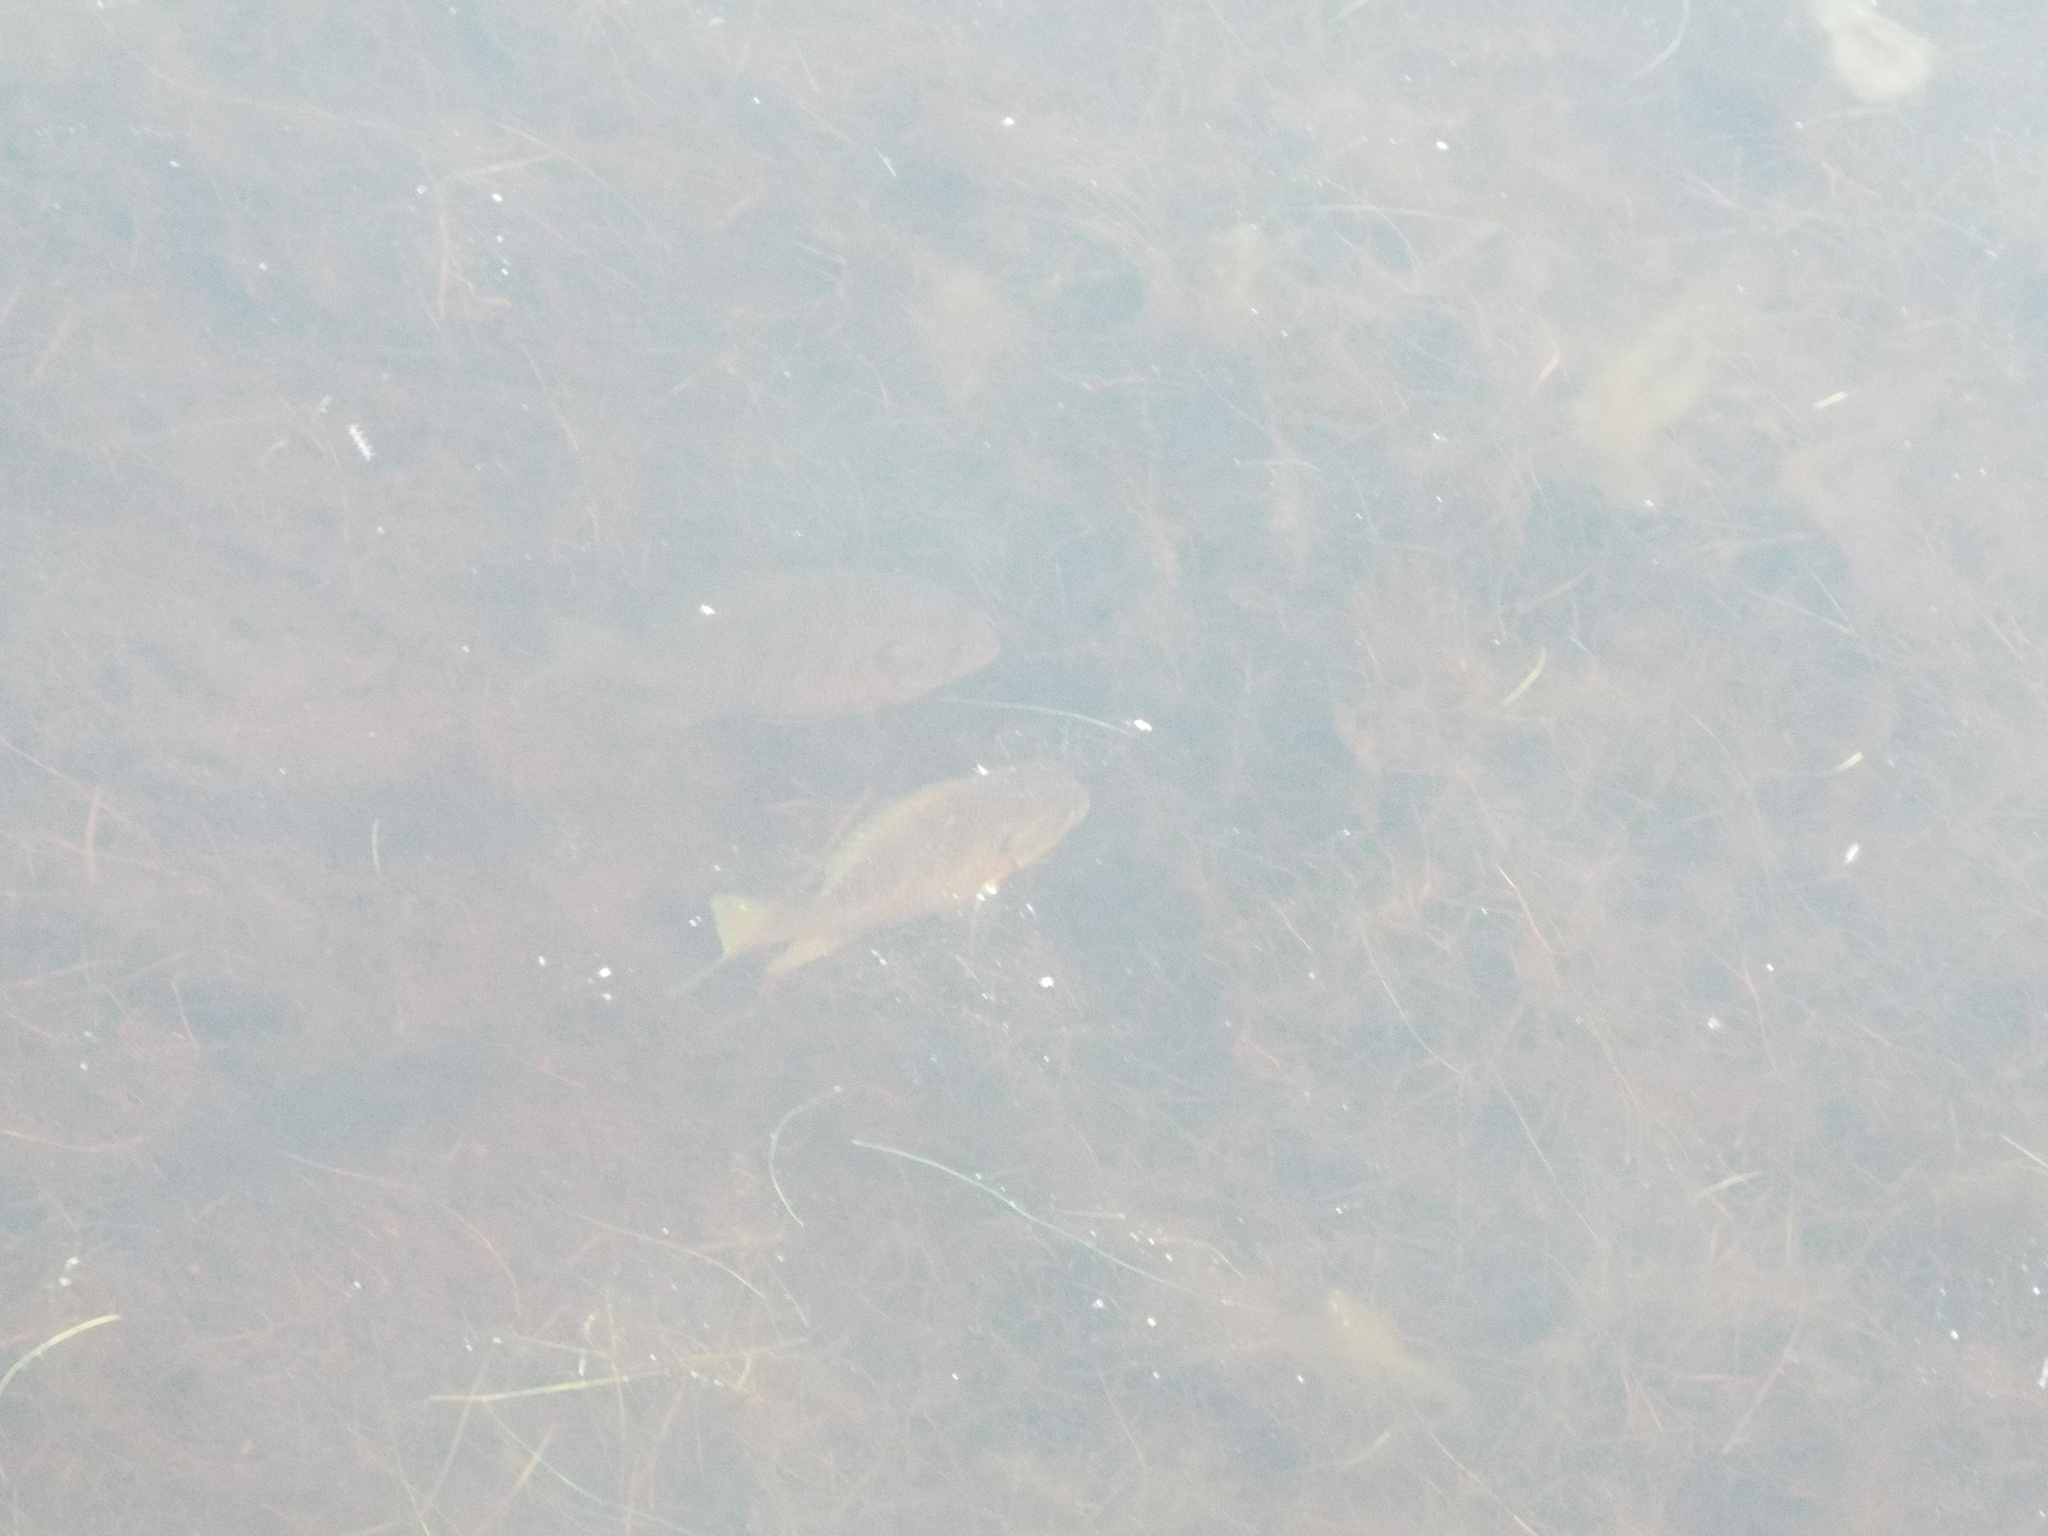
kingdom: Animalia
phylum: Chordata
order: Perciformes
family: Centrarchidae
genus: Lepomis
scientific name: Lepomis macrochirus
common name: Bluegill
